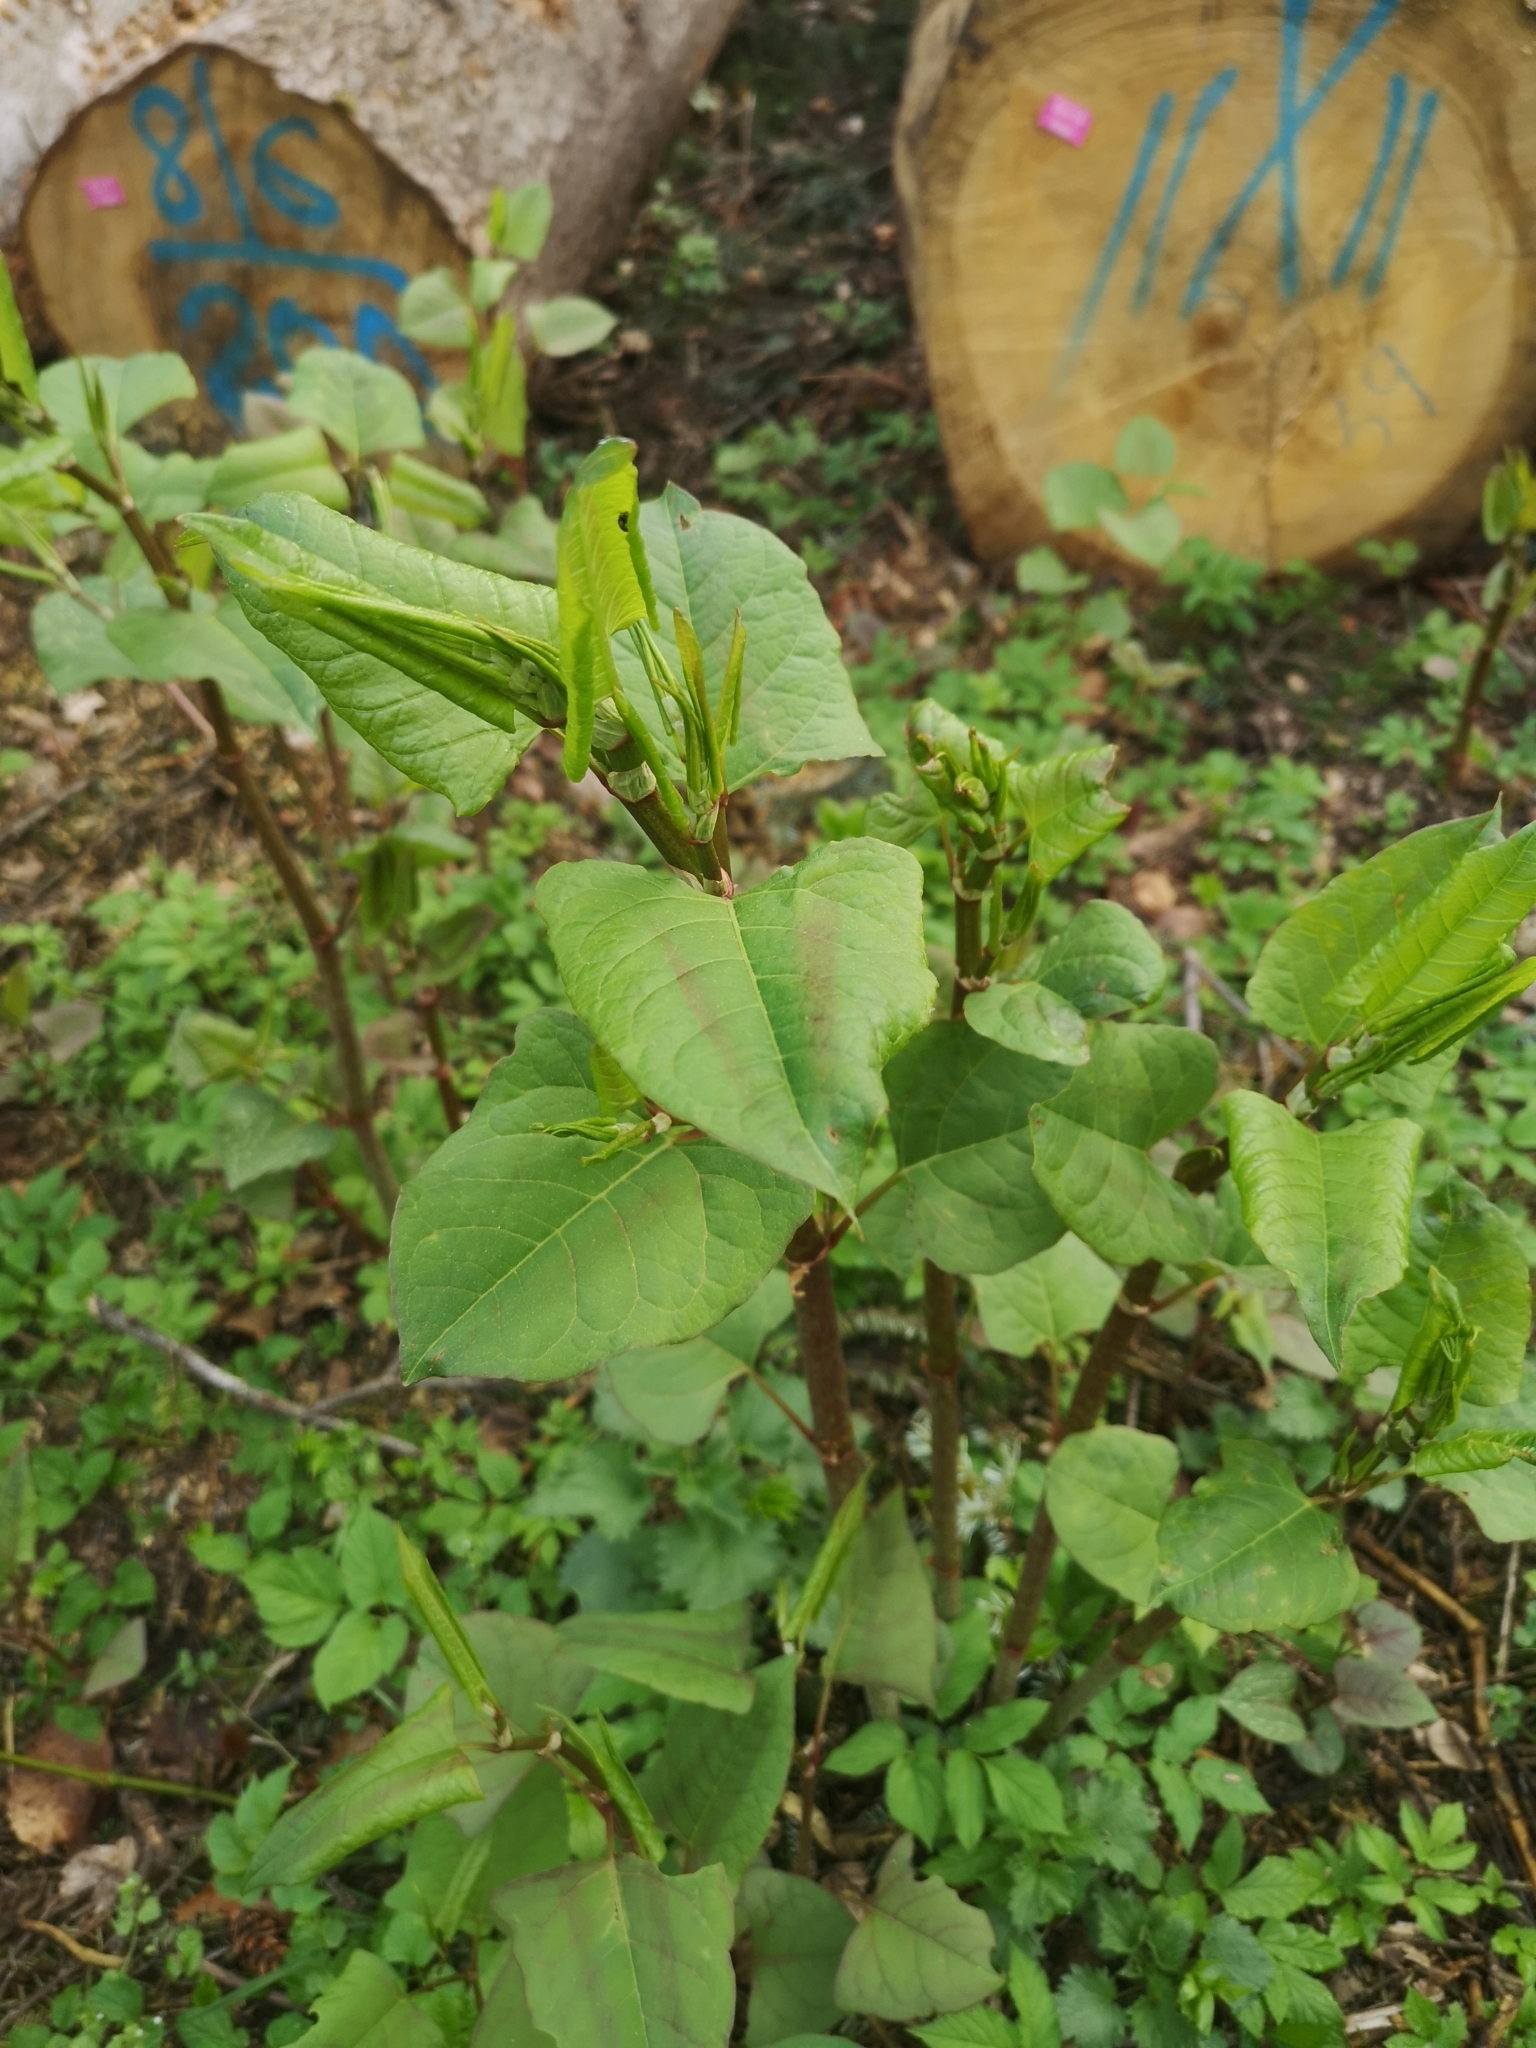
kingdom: Plantae
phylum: Tracheophyta
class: Magnoliopsida
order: Caryophyllales
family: Polygonaceae
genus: Reynoutria
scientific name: Reynoutria japonica
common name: Japanese knotweed
